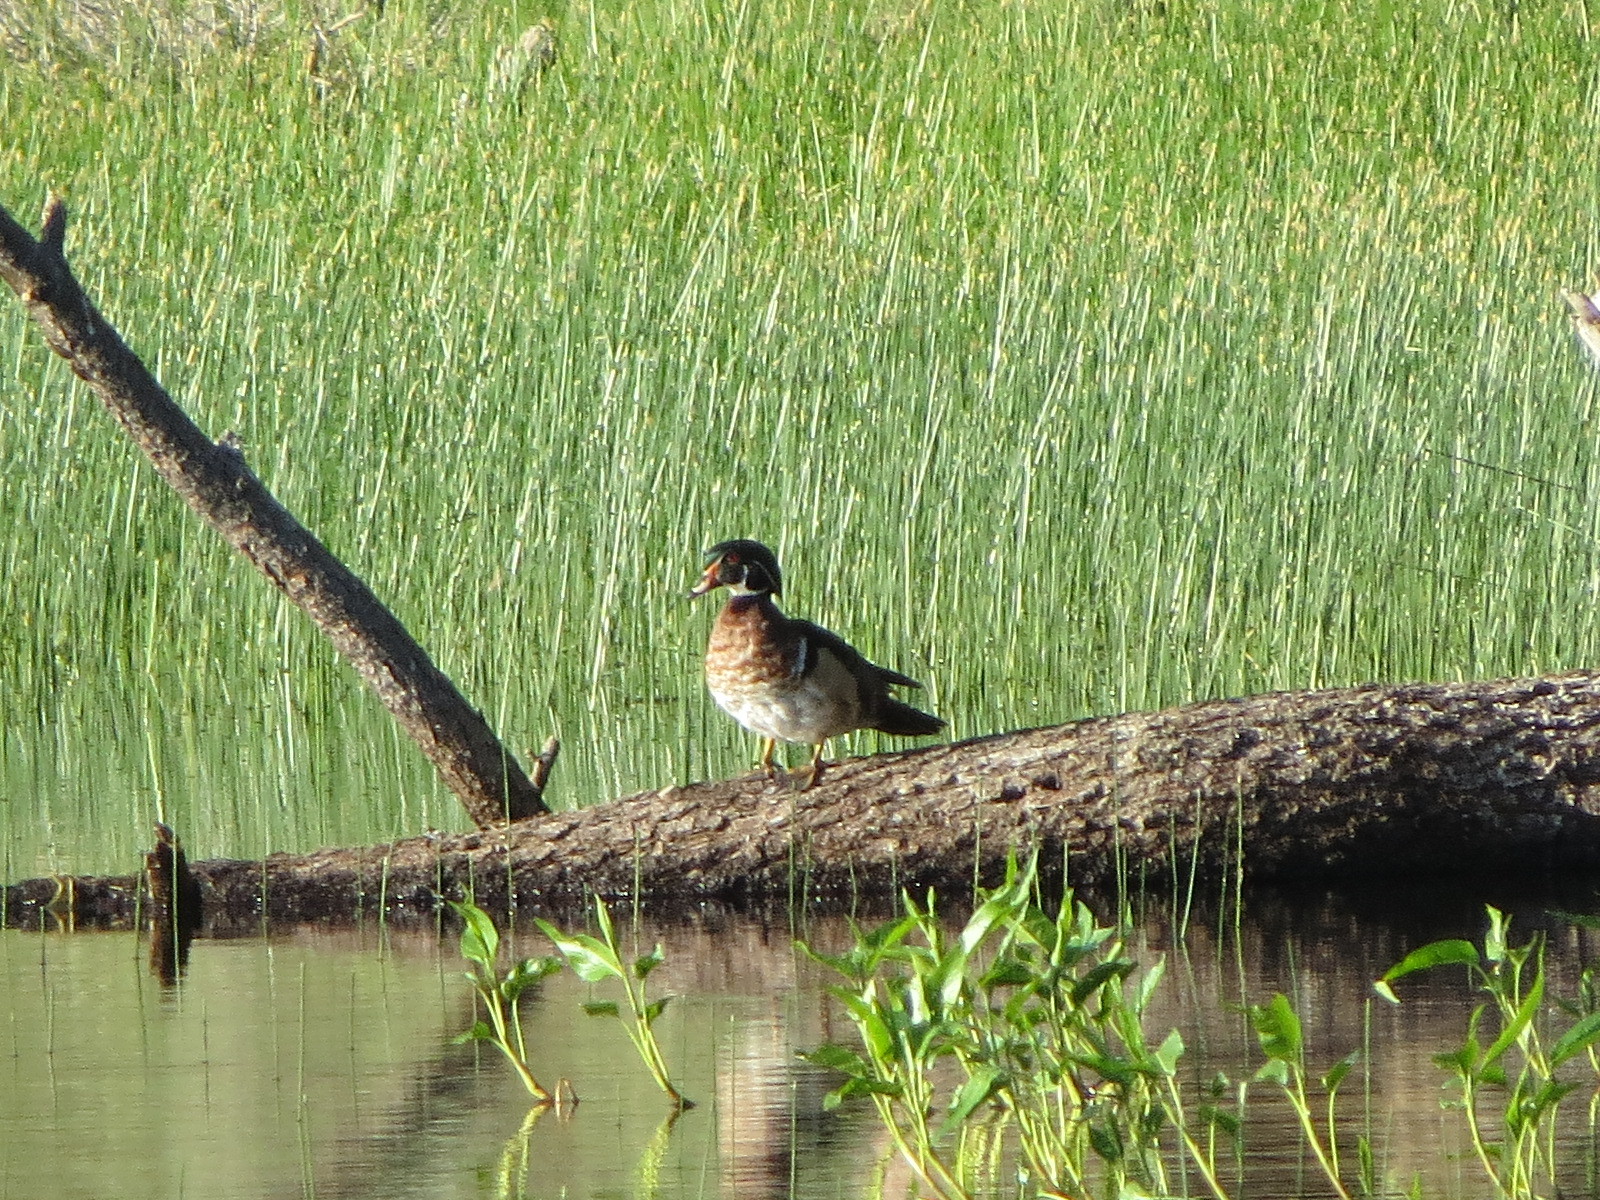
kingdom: Animalia
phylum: Chordata
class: Aves
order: Anseriformes
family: Anatidae
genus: Aix
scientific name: Aix sponsa
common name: Wood duck
